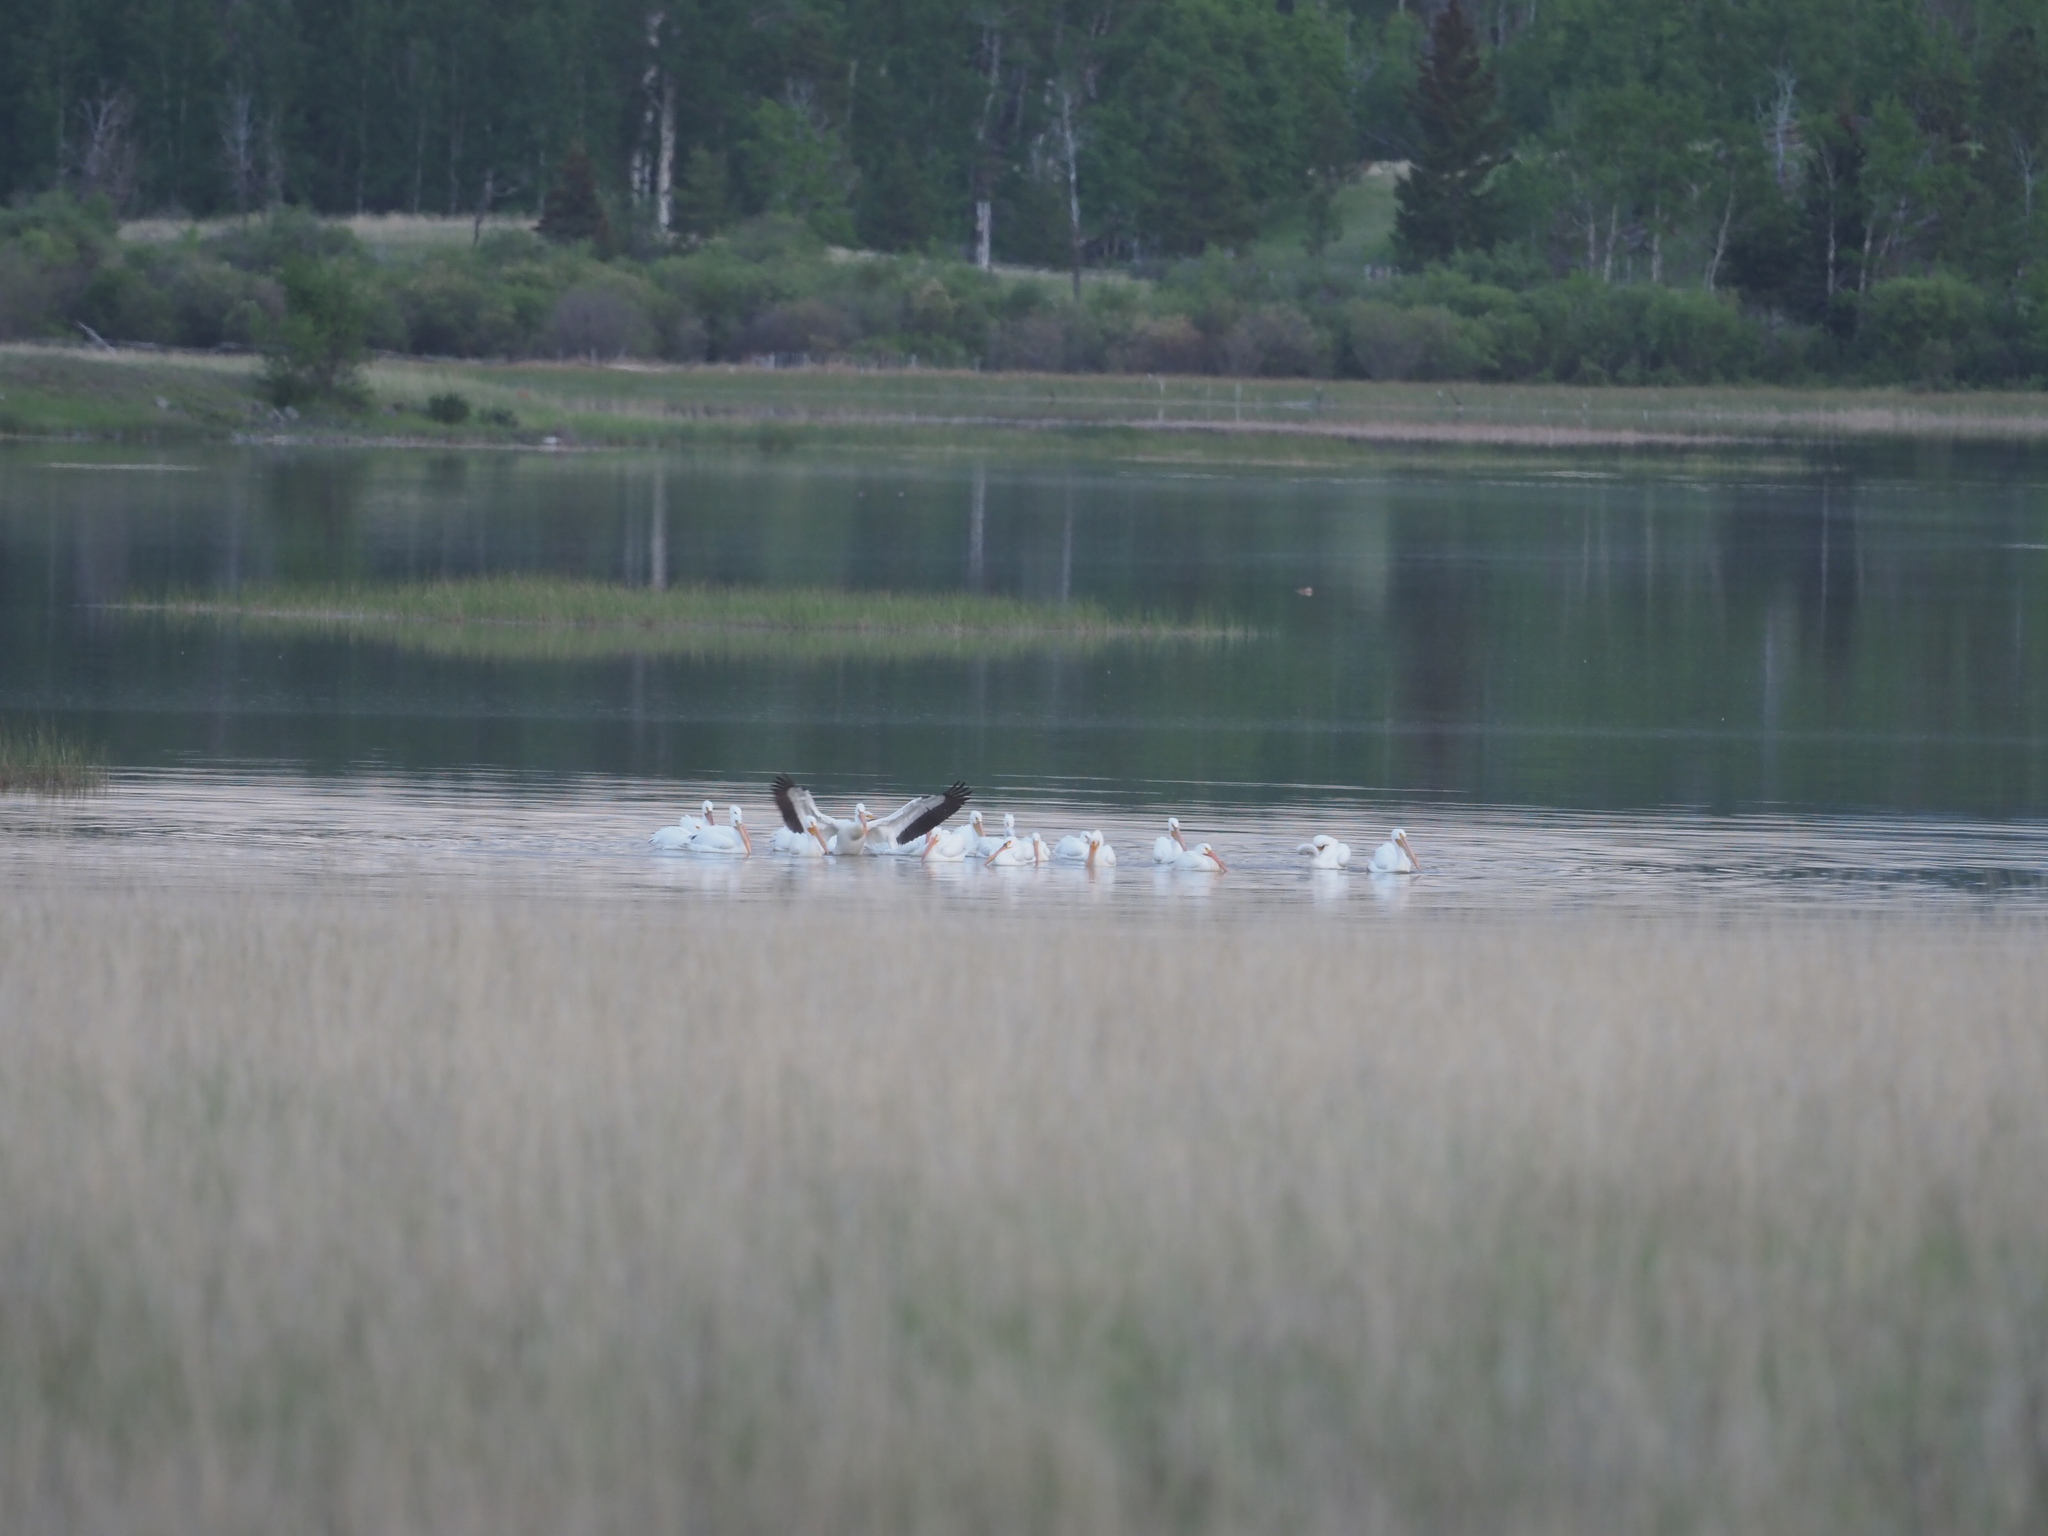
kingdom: Animalia
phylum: Chordata
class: Aves
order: Pelecaniformes
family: Pelecanidae
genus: Pelecanus
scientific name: Pelecanus erythrorhynchos
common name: American white pelican
